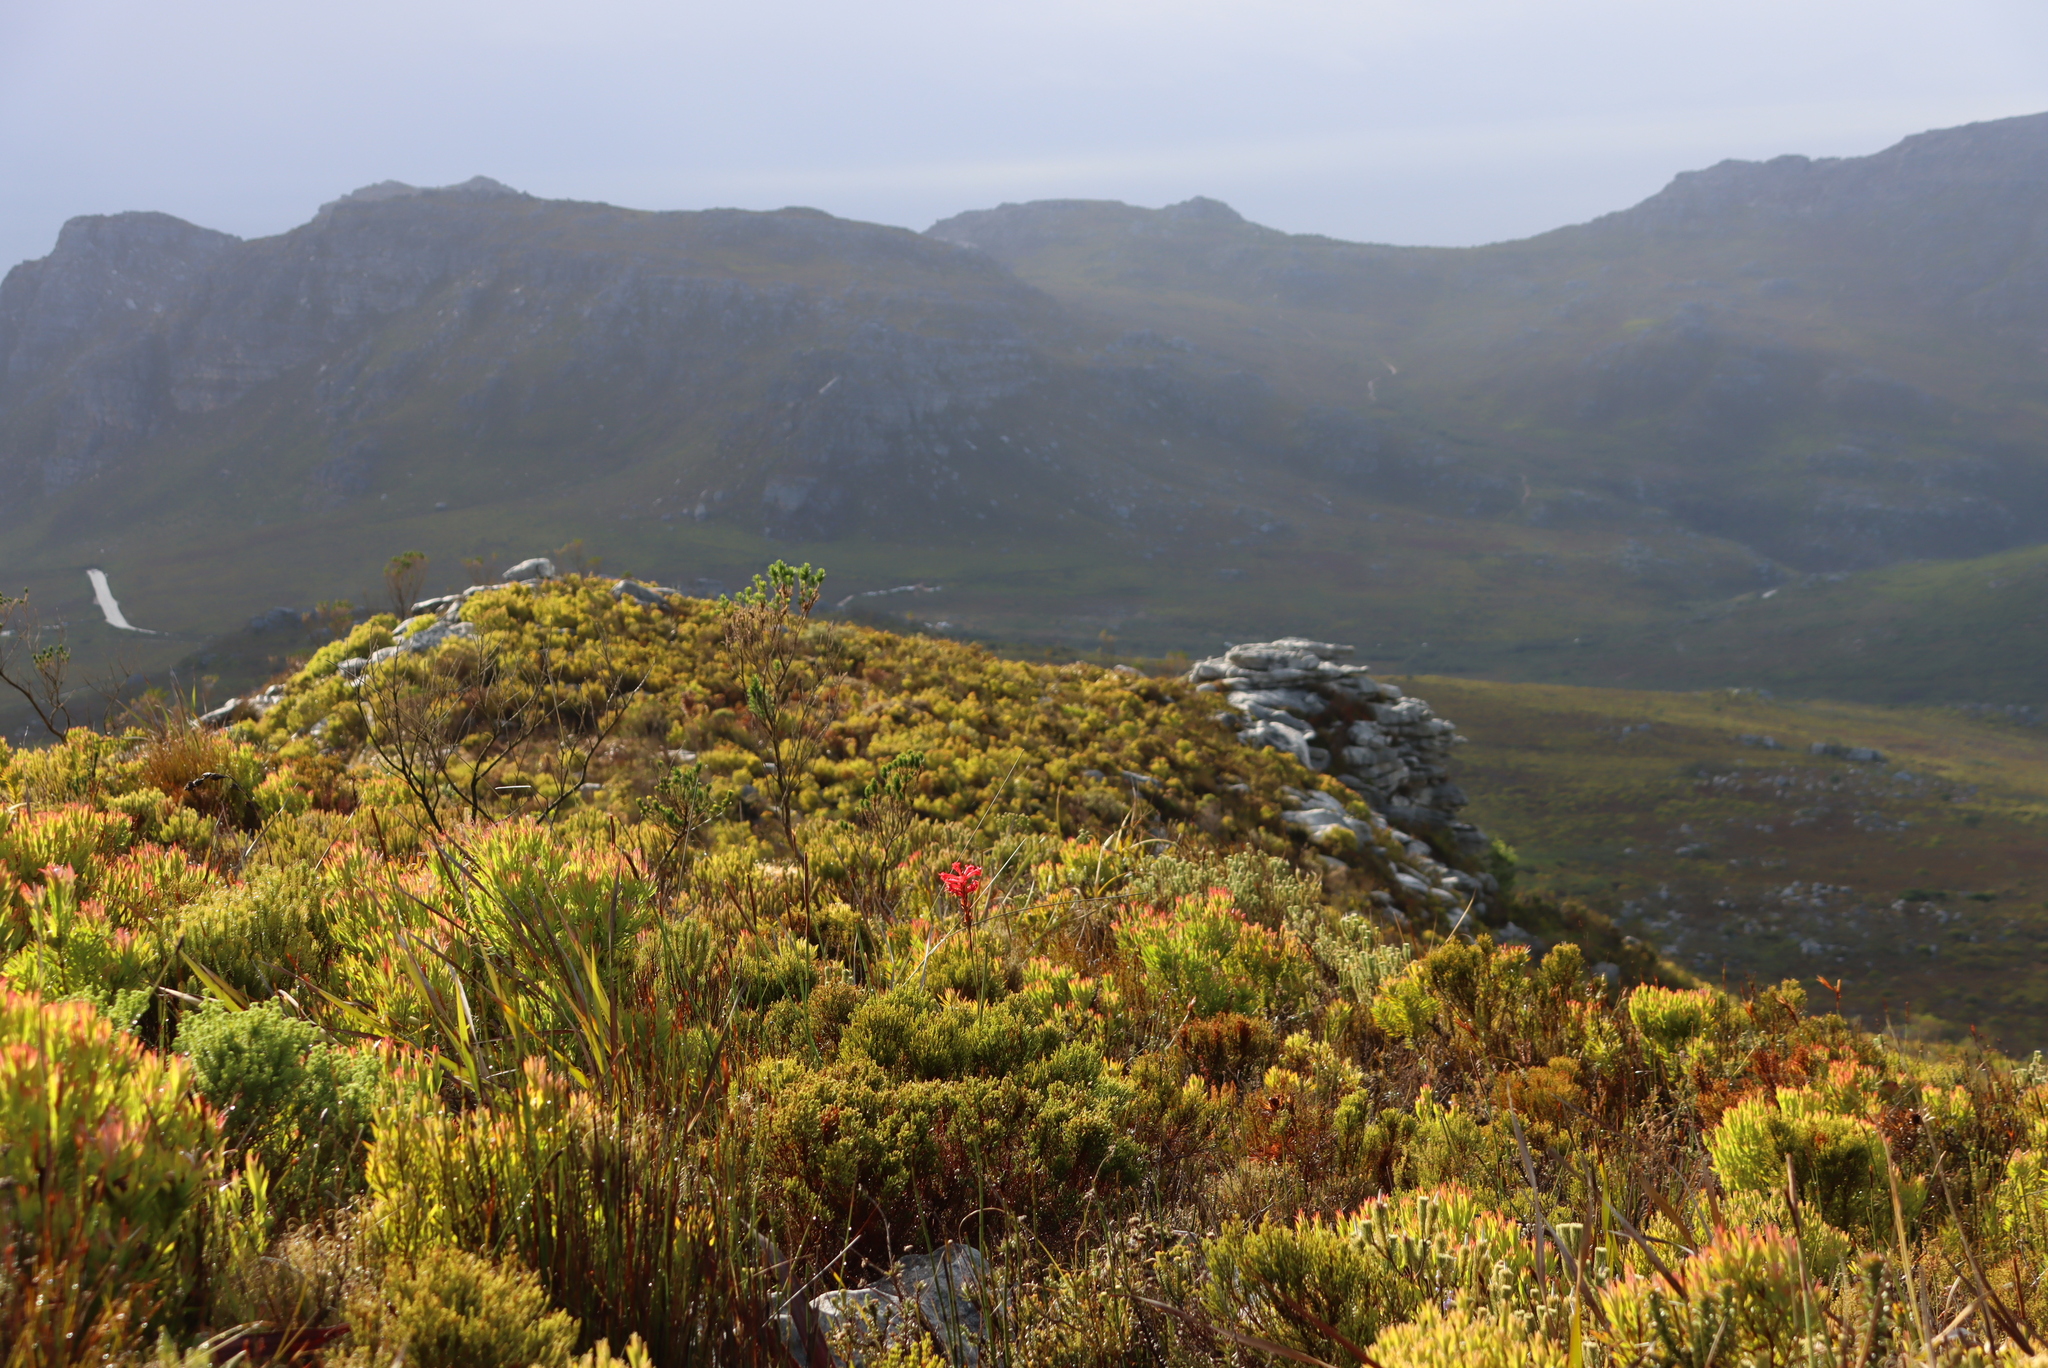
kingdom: Plantae
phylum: Tracheophyta
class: Liliopsida
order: Asparagales
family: Iridaceae
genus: Tritoniopsis
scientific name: Tritoniopsis triticea
